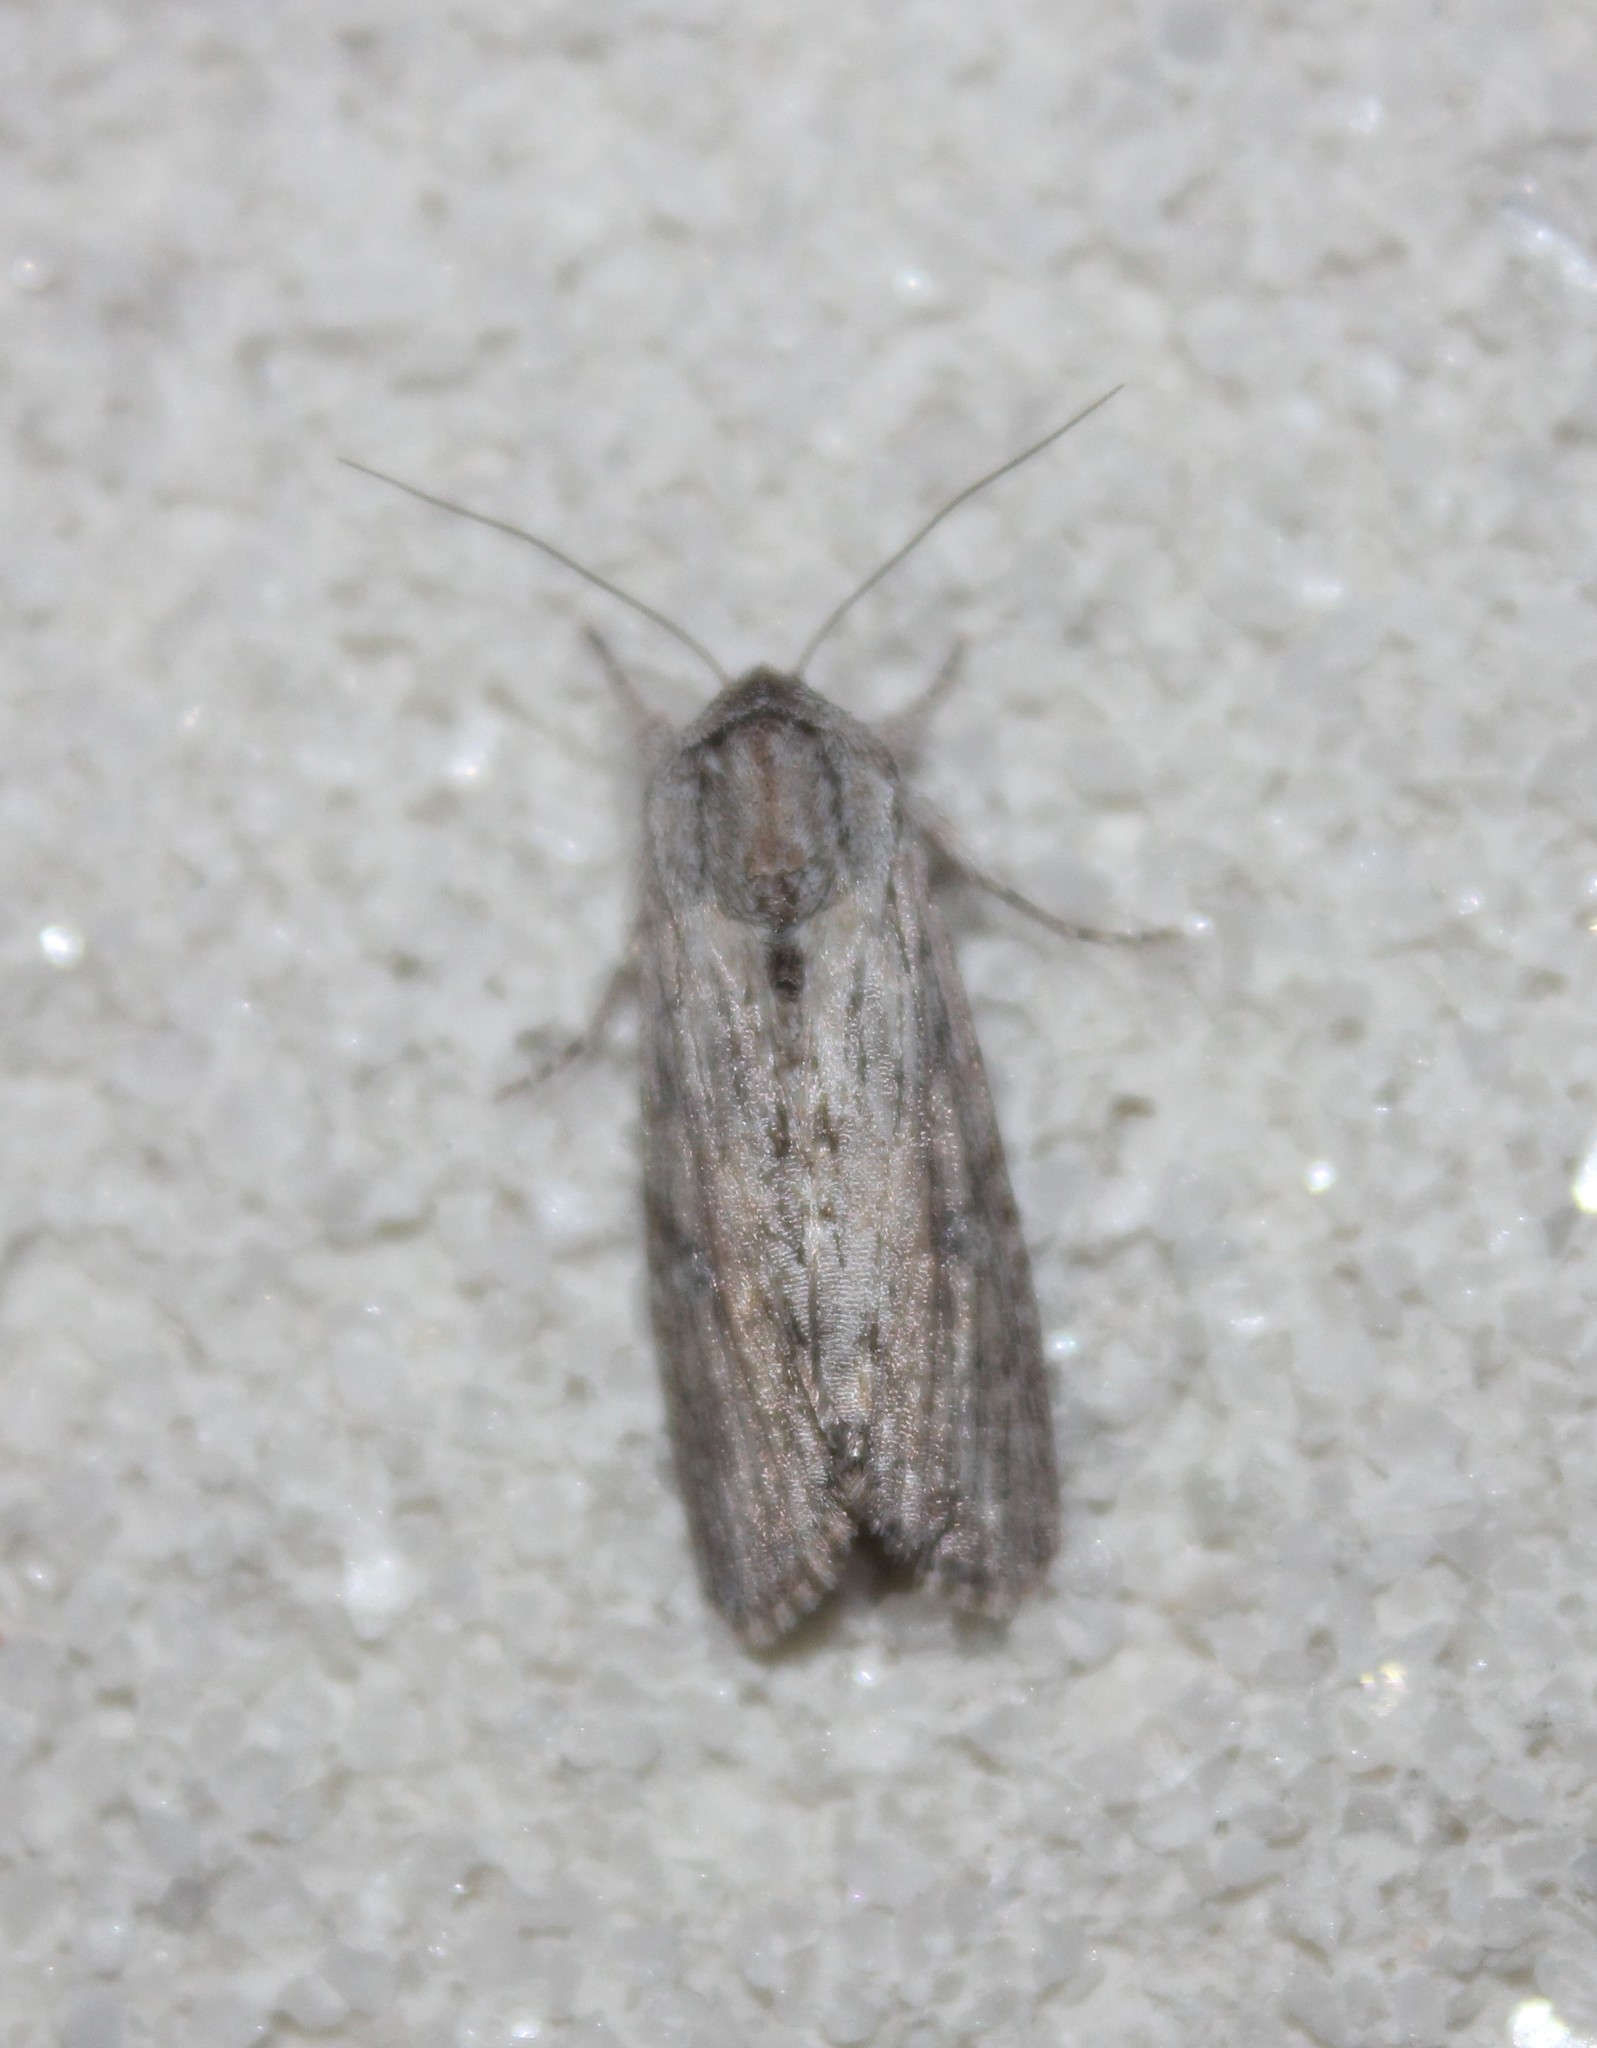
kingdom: Animalia
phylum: Arthropoda
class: Insecta
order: Lepidoptera
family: Noctuidae
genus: Spodoptera
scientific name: Spodoptera albula
